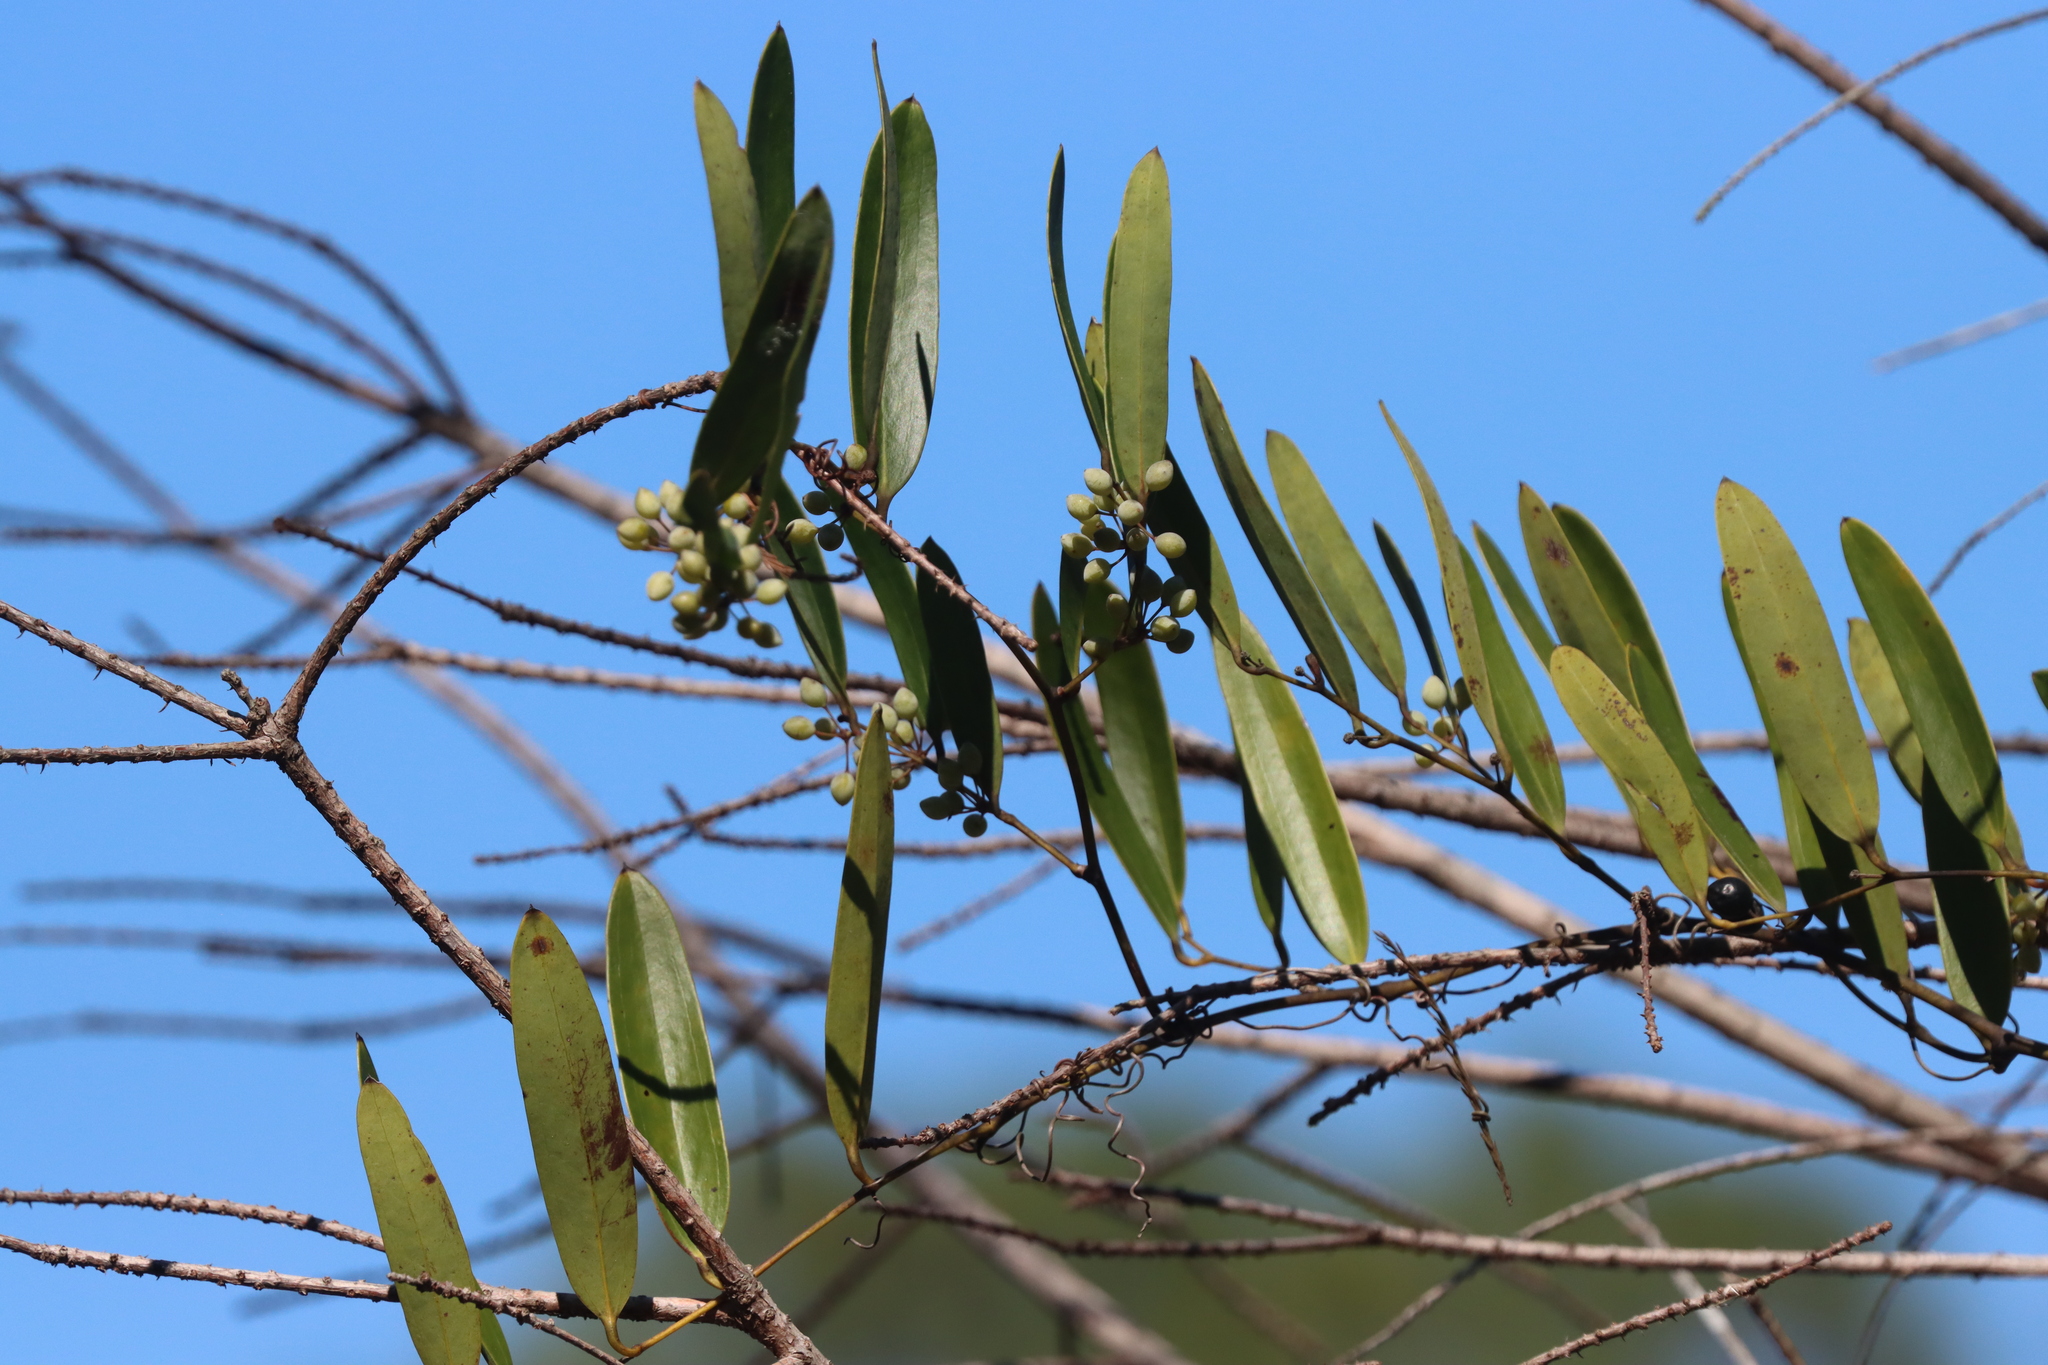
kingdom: Plantae
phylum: Tracheophyta
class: Liliopsida
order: Liliales
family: Smilacaceae
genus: Smilax
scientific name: Smilax laurifolia
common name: Bamboovine
